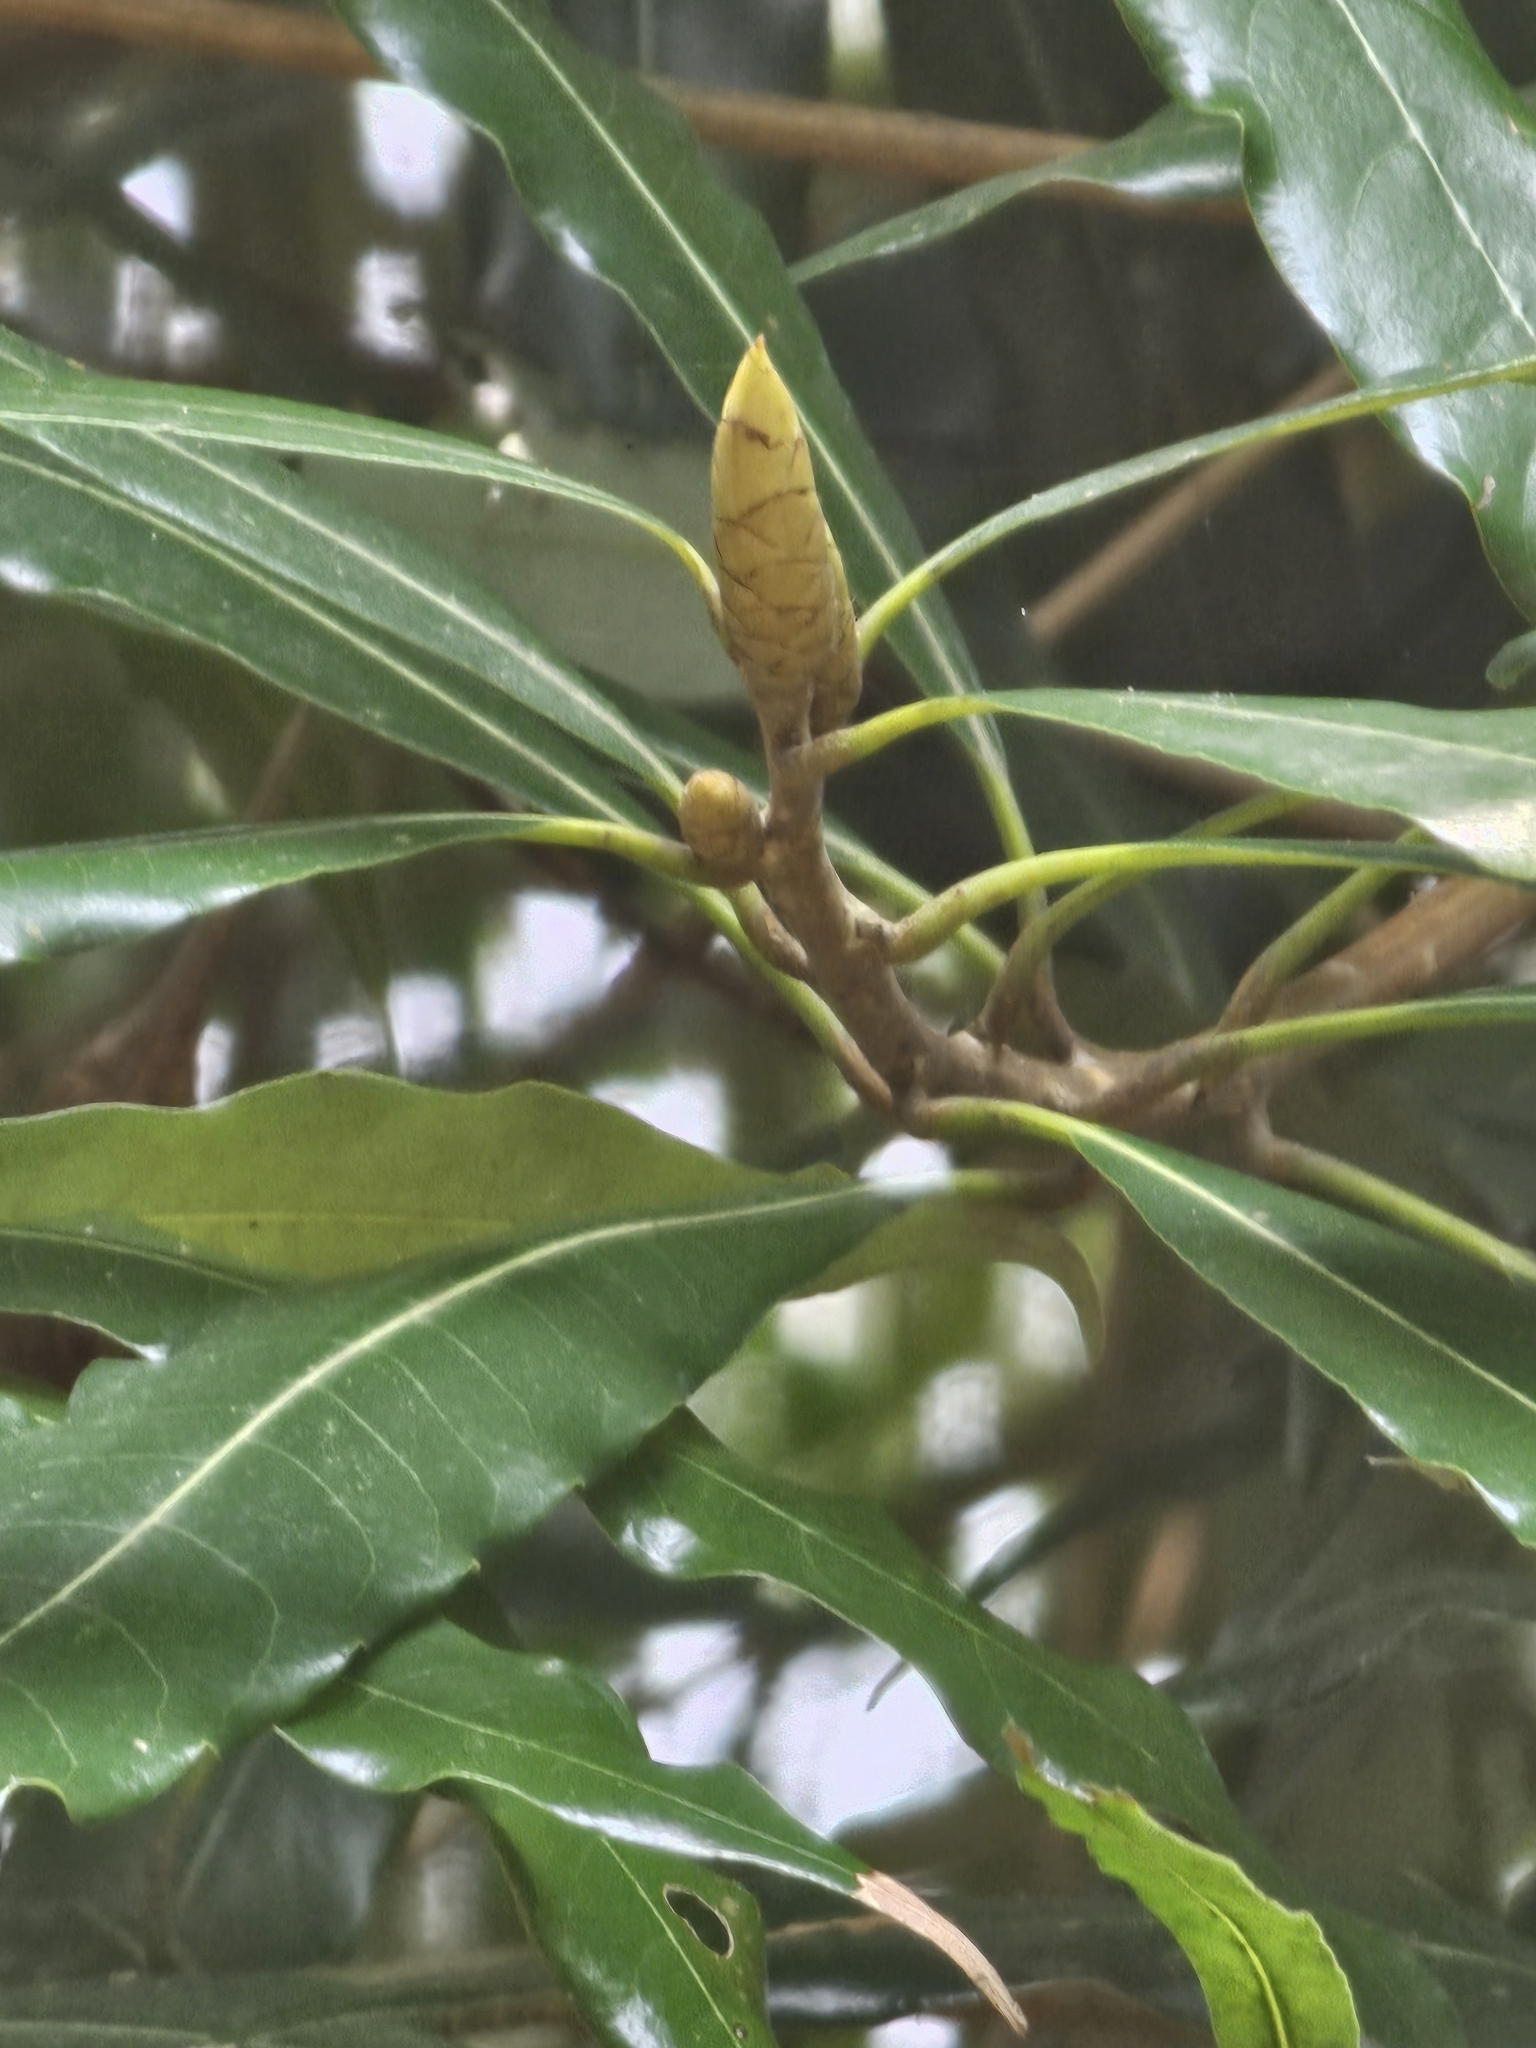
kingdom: Plantae
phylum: Tracheophyta
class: Magnoliopsida
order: Laurales
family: Lauraceae
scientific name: Lauraceae
